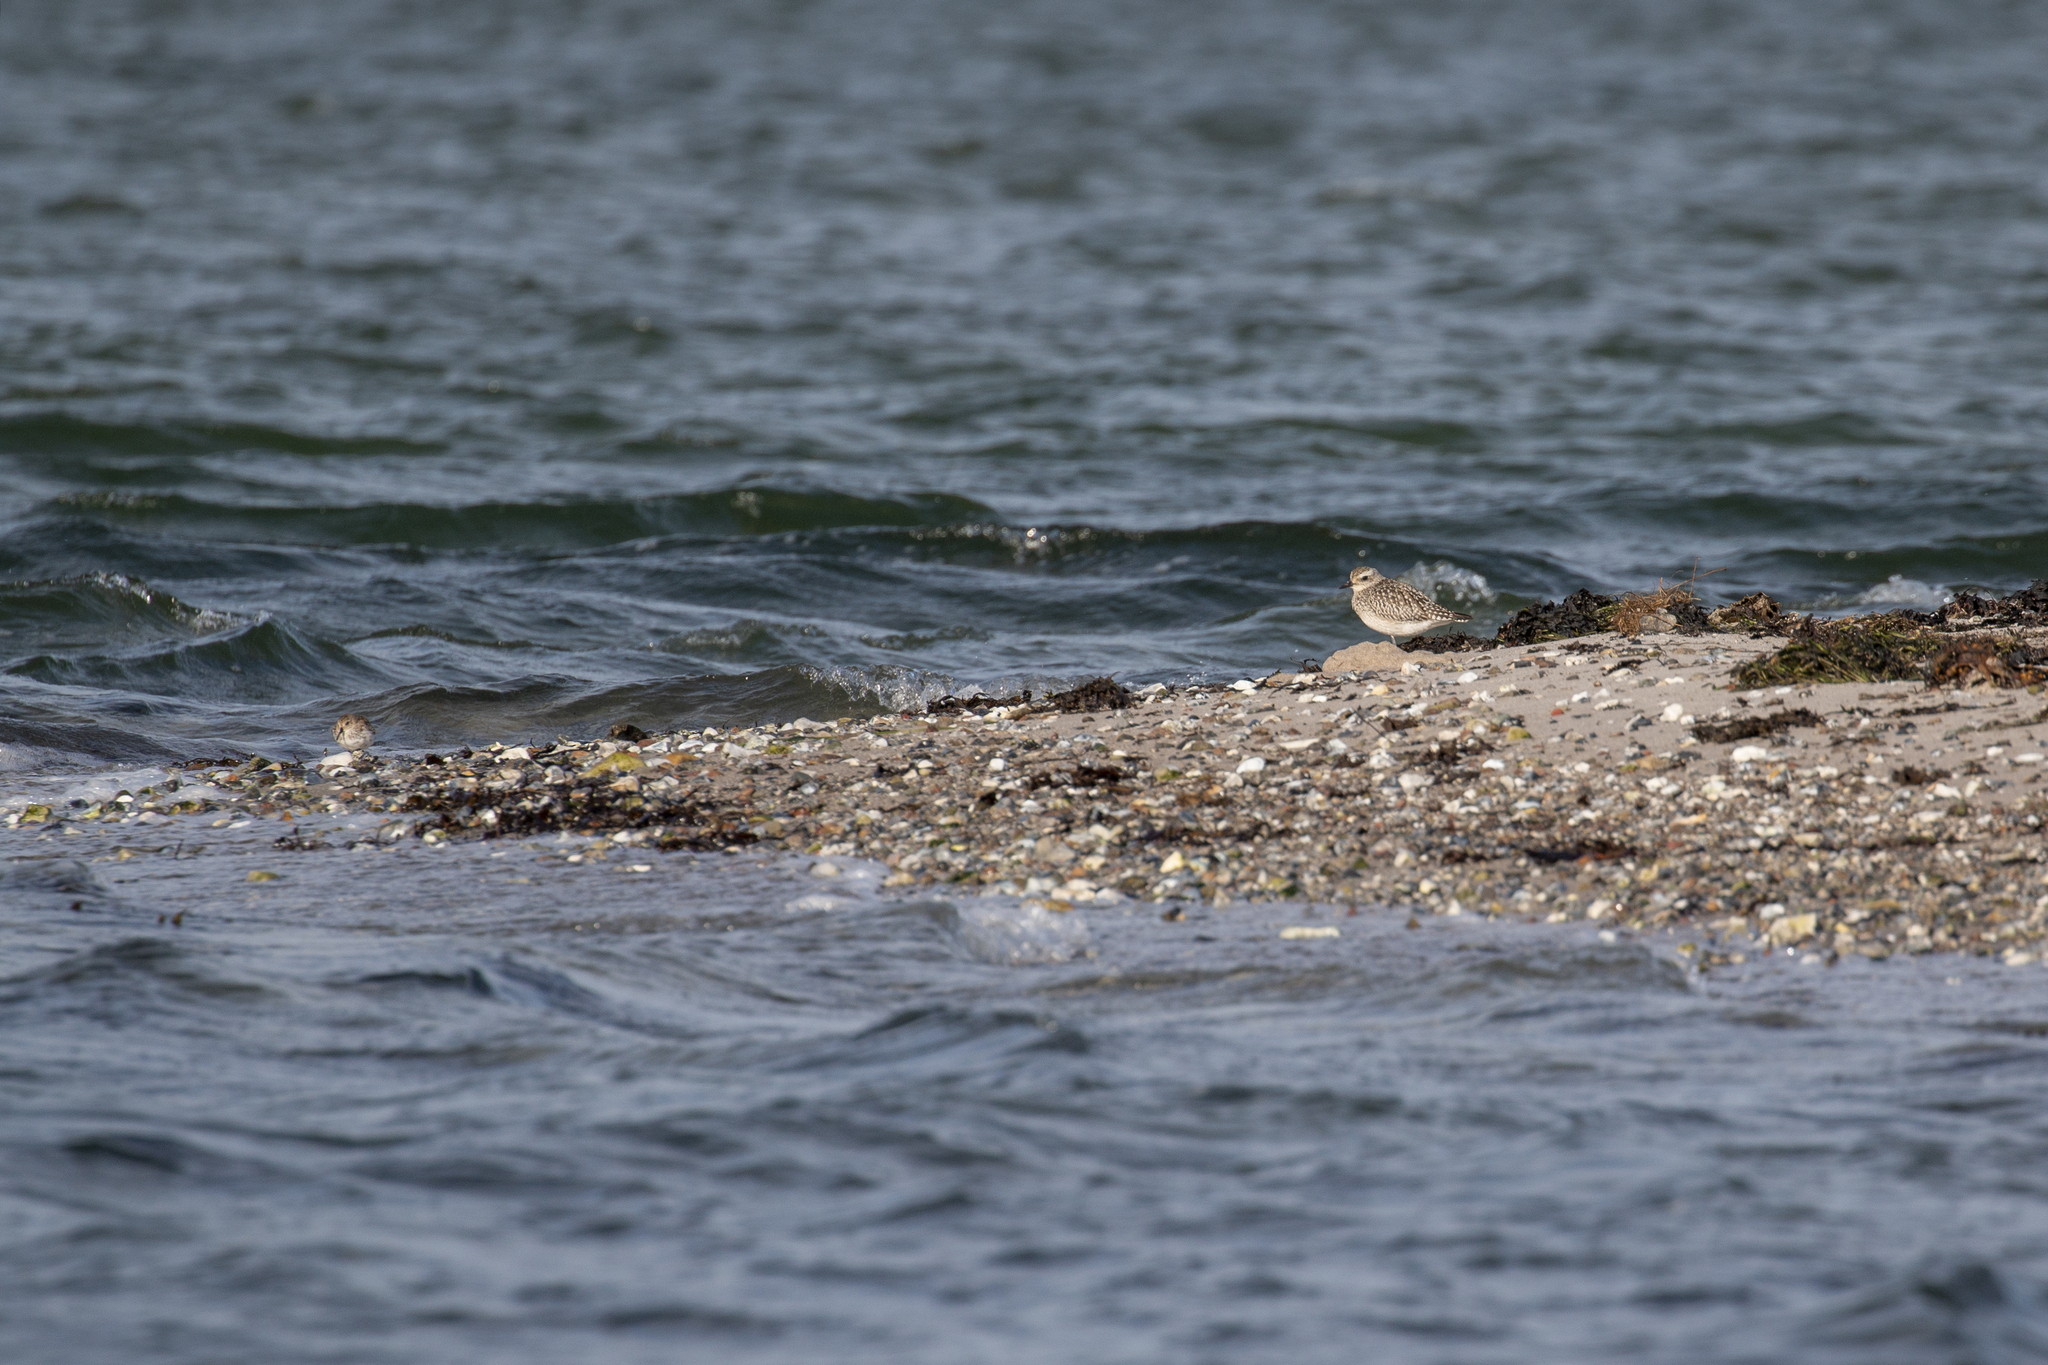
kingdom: Animalia
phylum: Chordata
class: Aves
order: Charadriiformes
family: Charadriidae
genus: Pluvialis
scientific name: Pluvialis squatarola
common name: Grey plover
